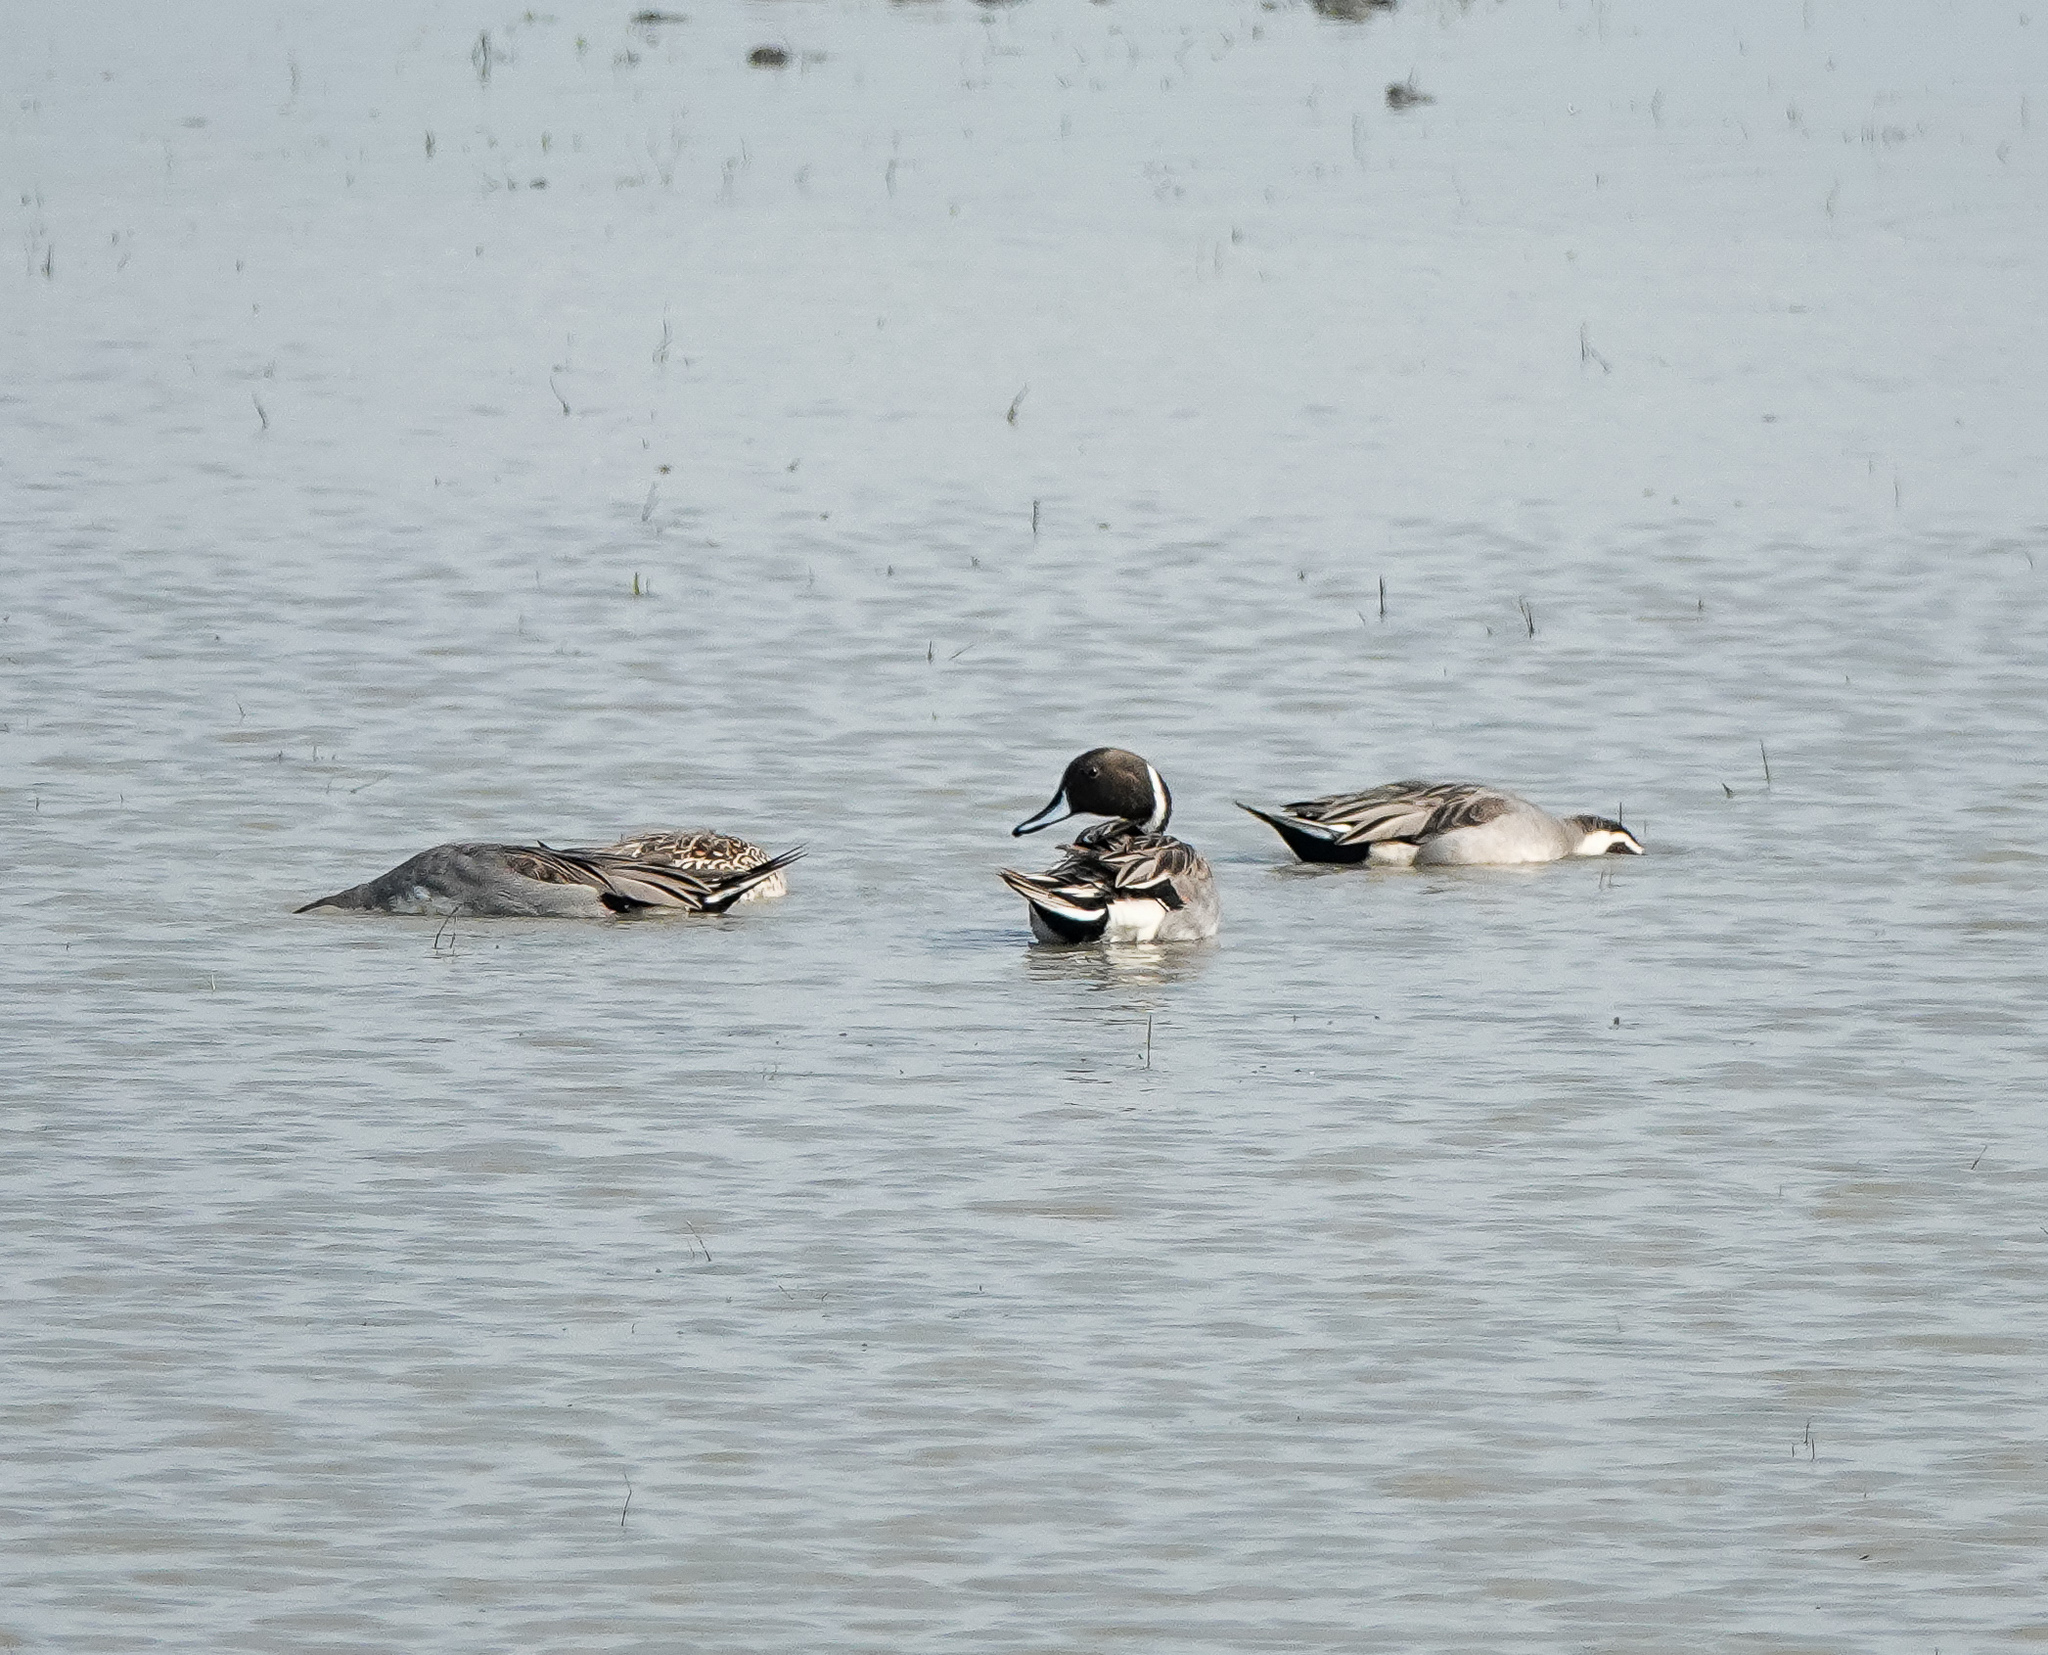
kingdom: Animalia
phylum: Chordata
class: Aves
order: Anseriformes
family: Anatidae
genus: Anas
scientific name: Anas acuta
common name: Northern pintail
